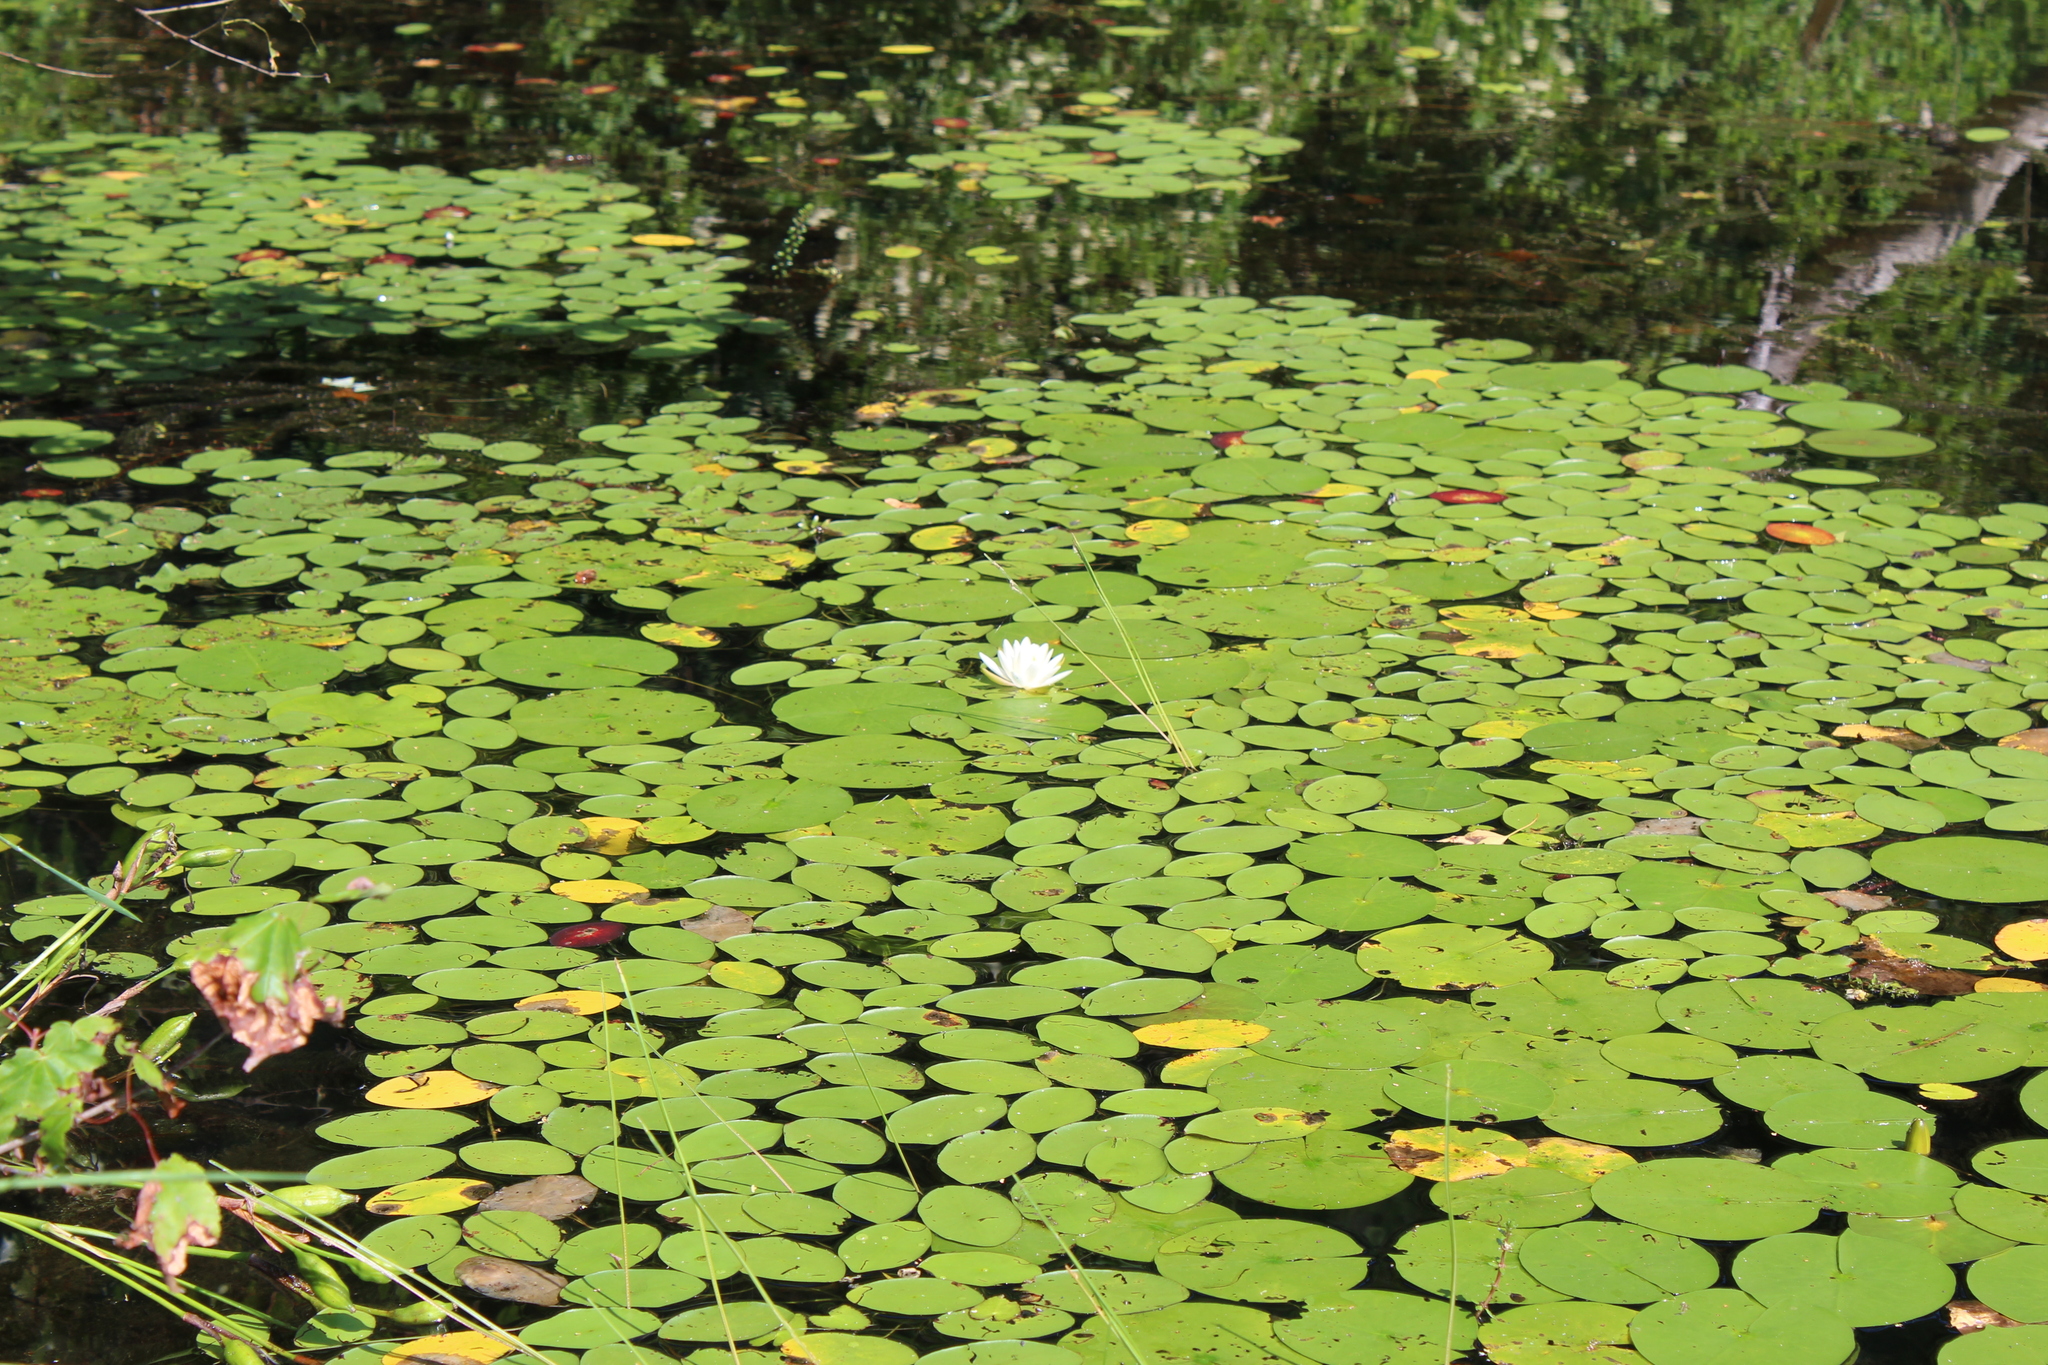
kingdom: Plantae
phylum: Tracheophyta
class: Magnoliopsida
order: Nymphaeales
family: Cabombaceae
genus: Brasenia
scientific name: Brasenia schreberi
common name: Water-shield
